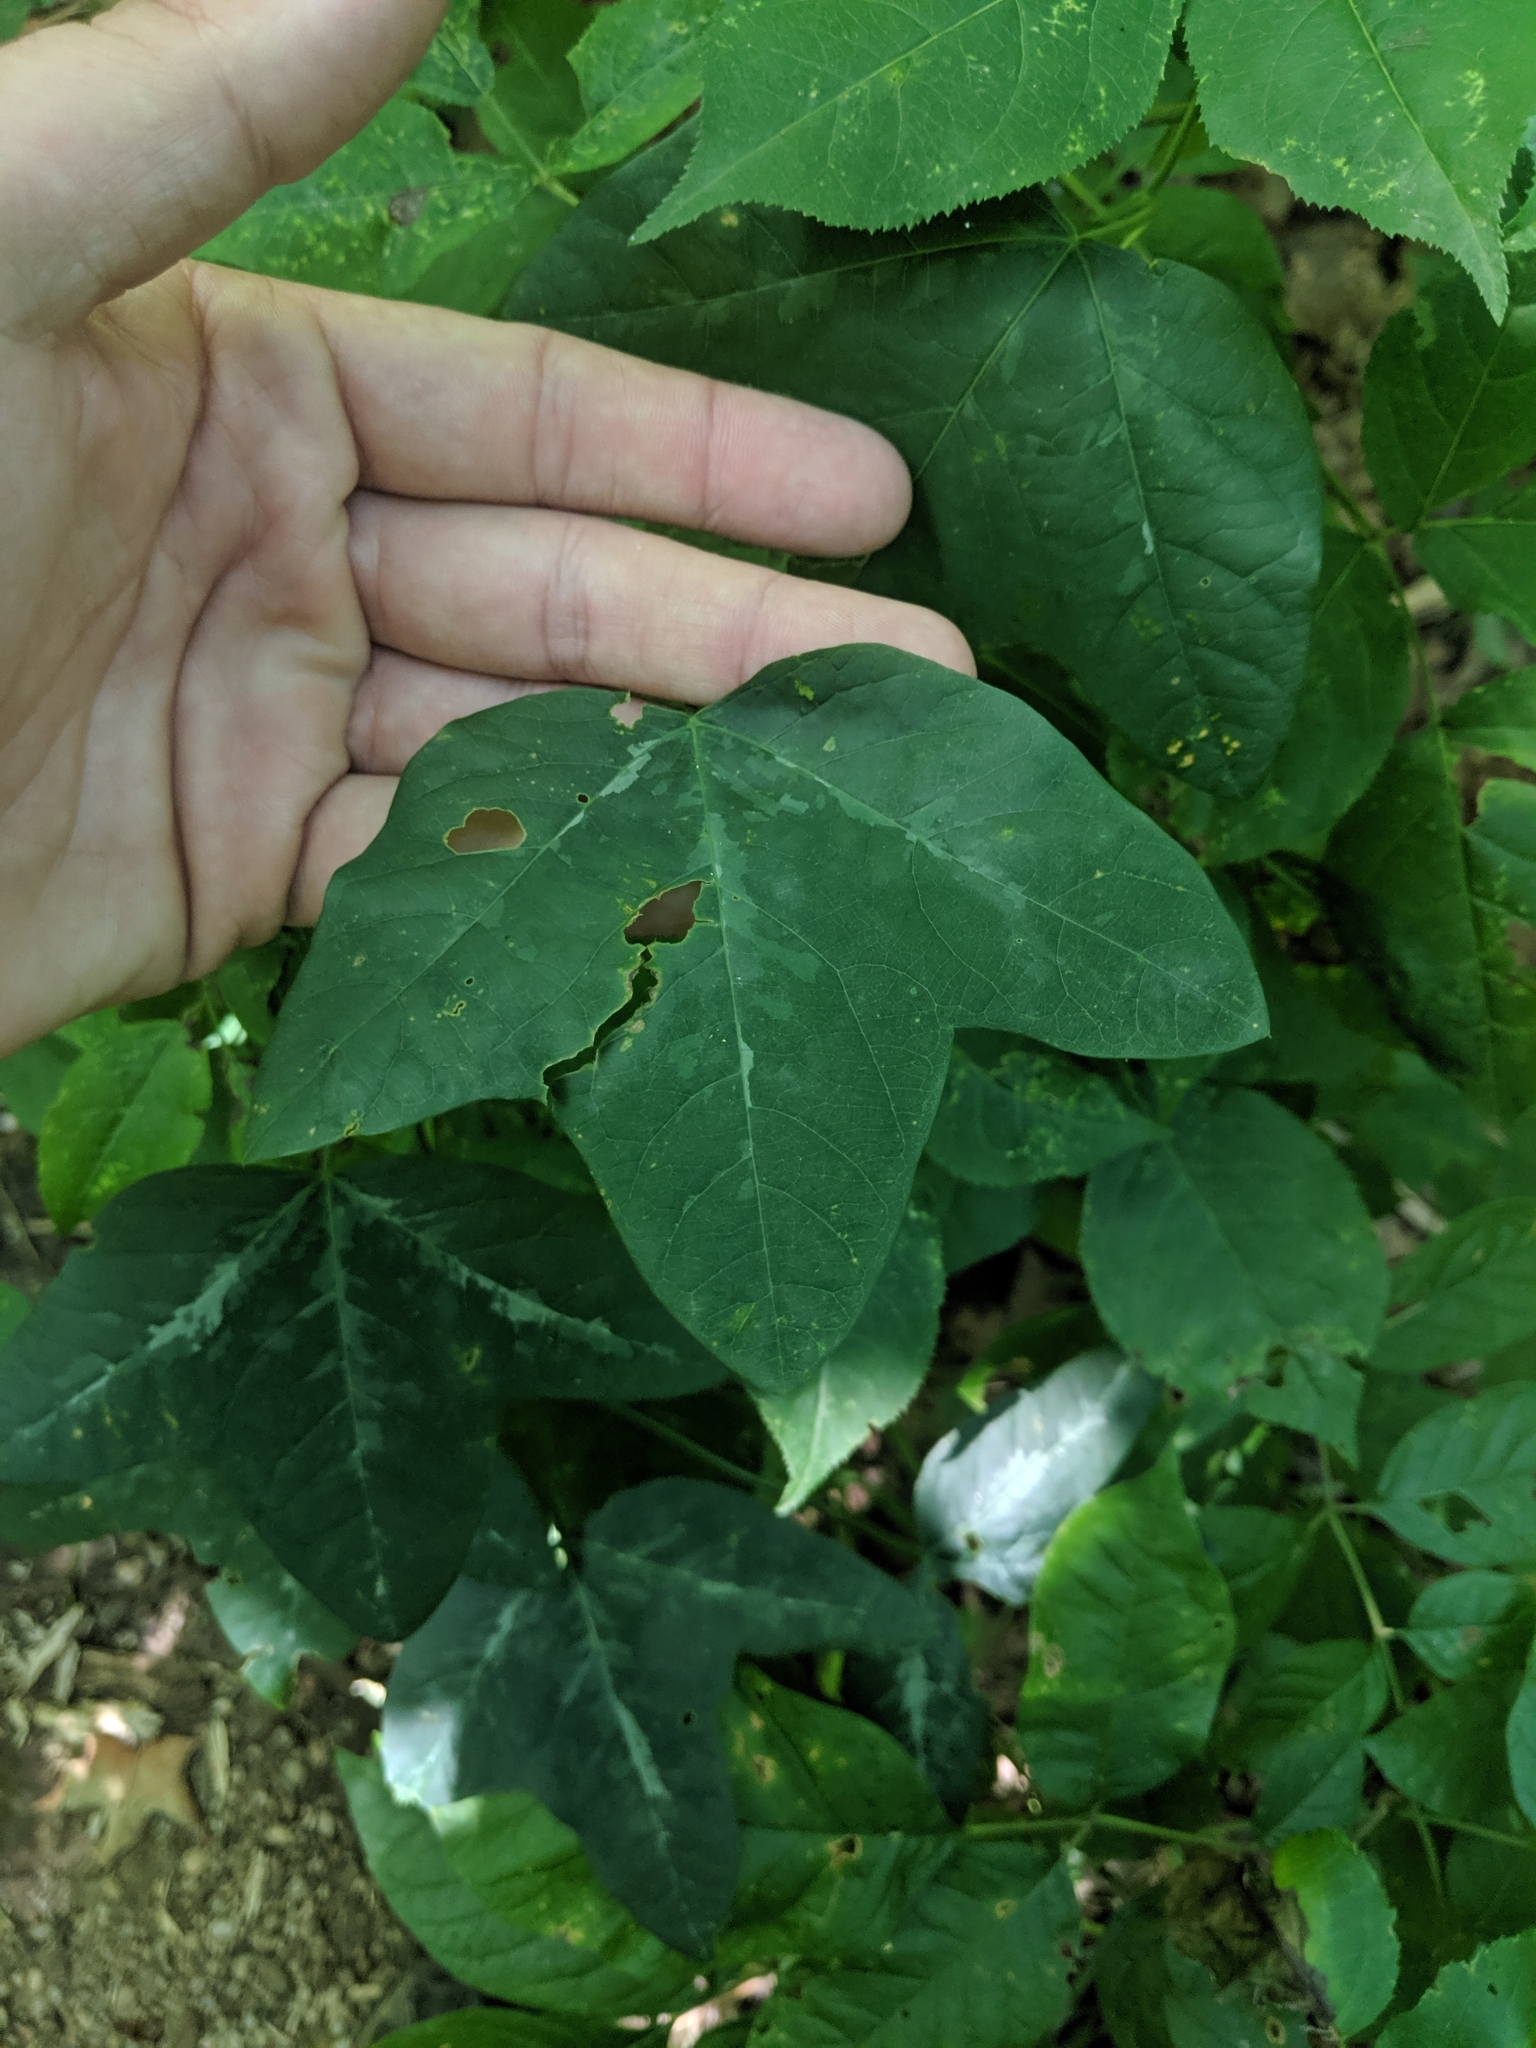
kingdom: Plantae
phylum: Tracheophyta
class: Magnoliopsida
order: Malpighiales
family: Passifloraceae
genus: Passiflora
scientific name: Passiflora lutea
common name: Yellow passionflower
